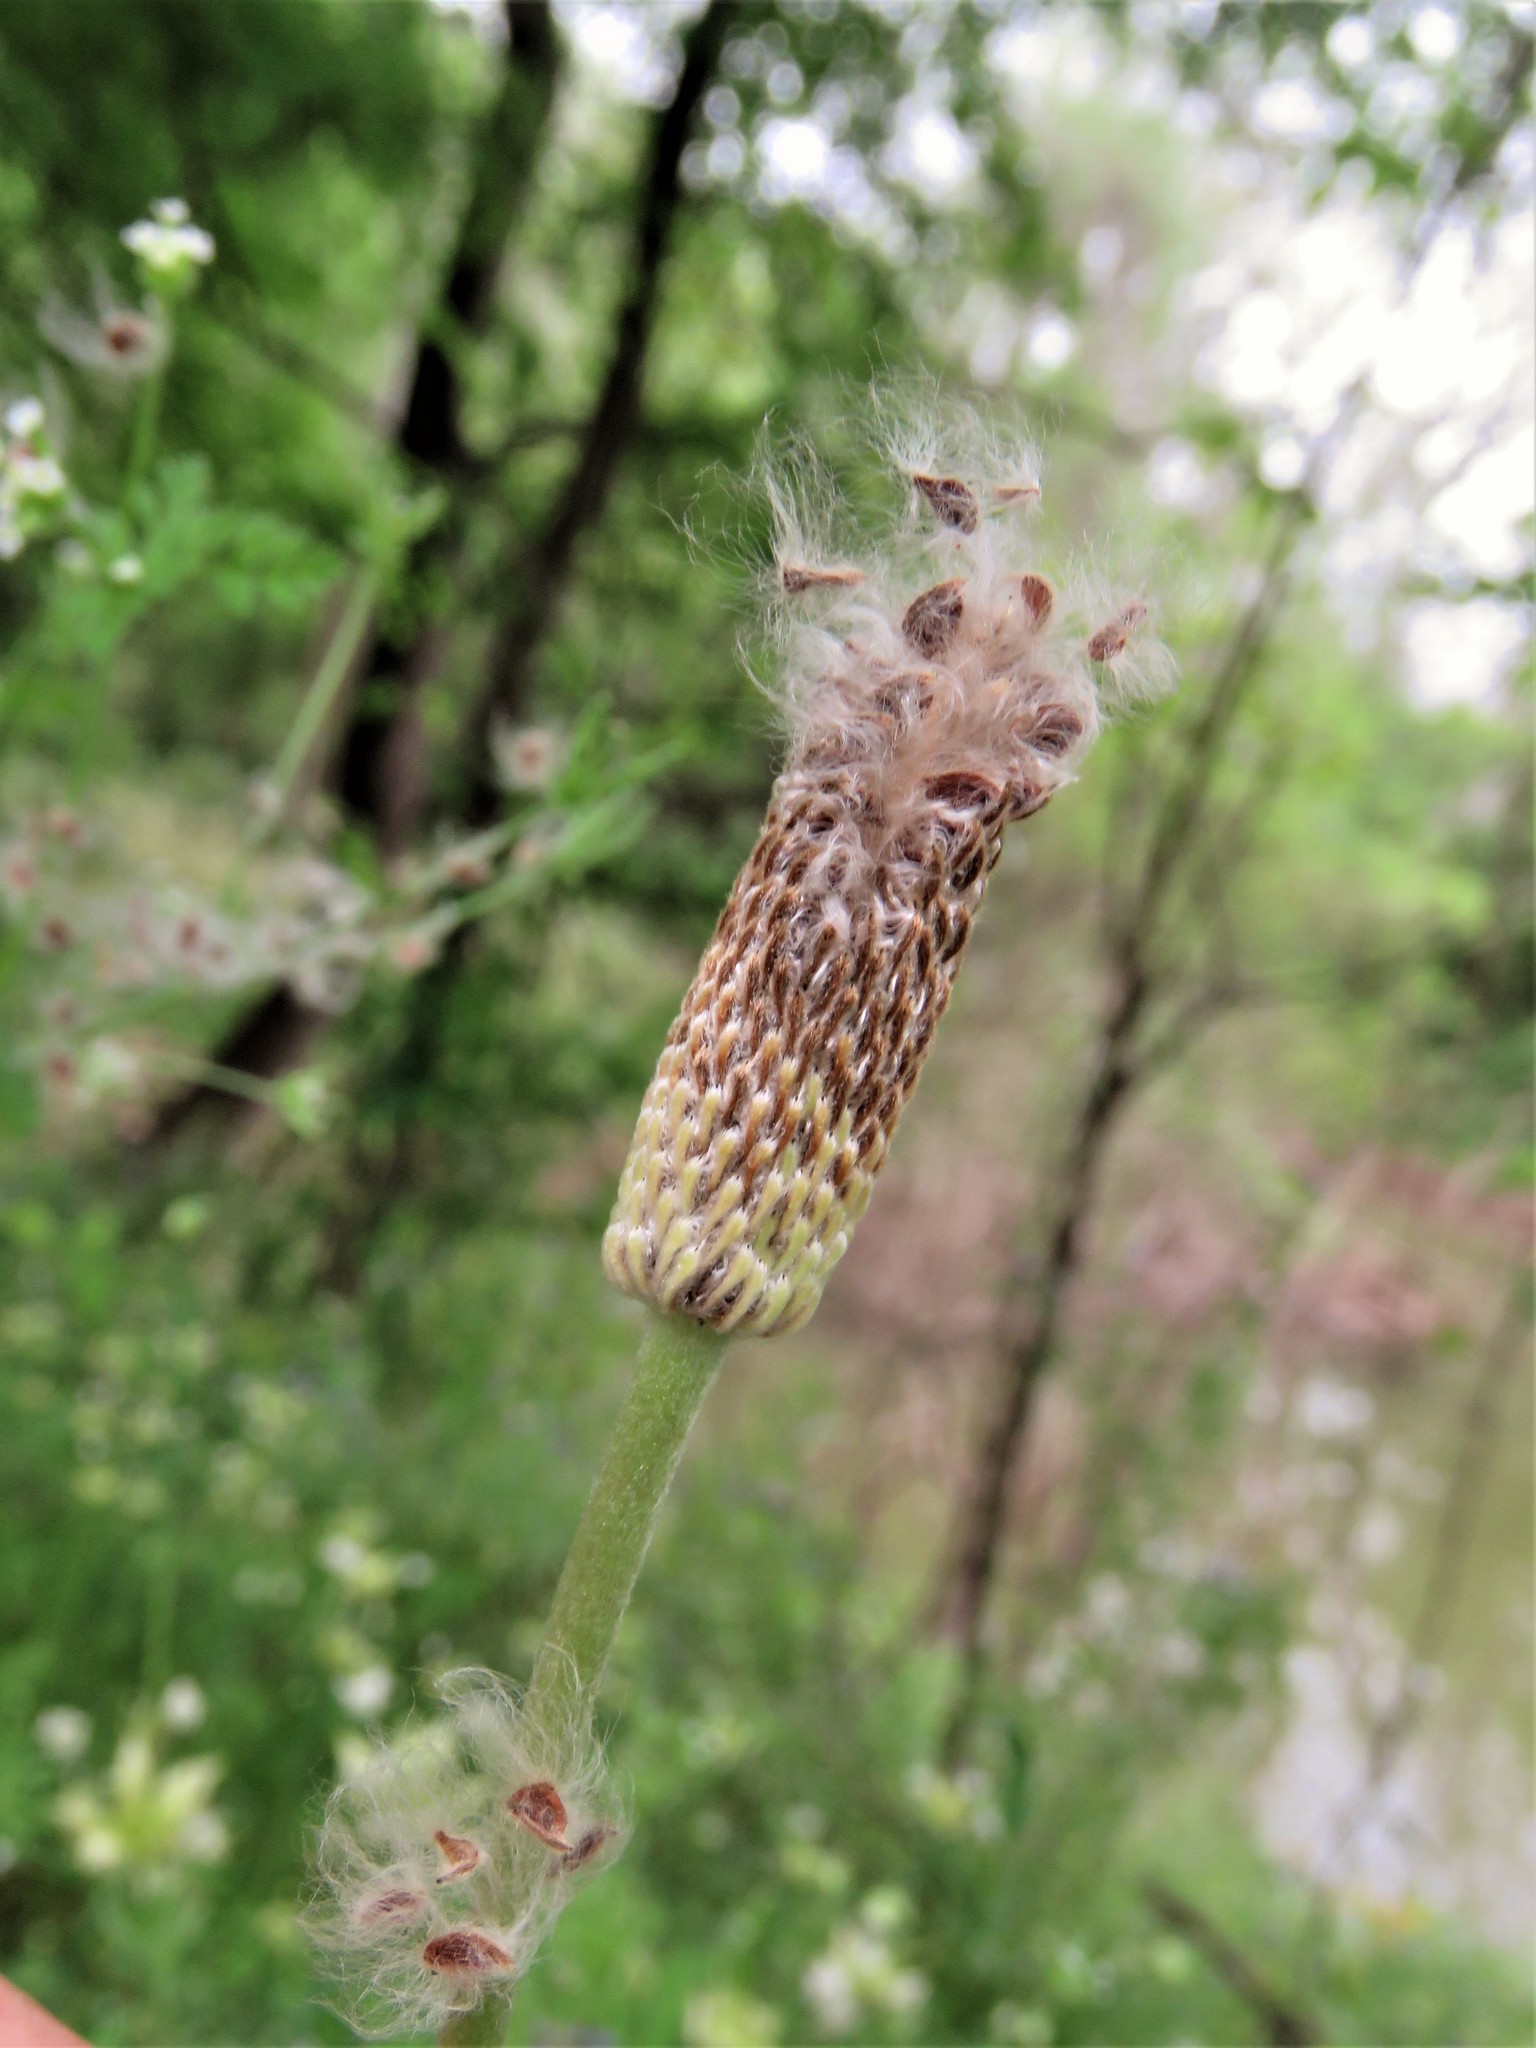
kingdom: Plantae
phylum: Tracheophyta
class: Magnoliopsida
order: Ranunculales
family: Ranunculaceae
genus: Anemone
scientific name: Anemone berlandieri
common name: Ten-petal anemone
